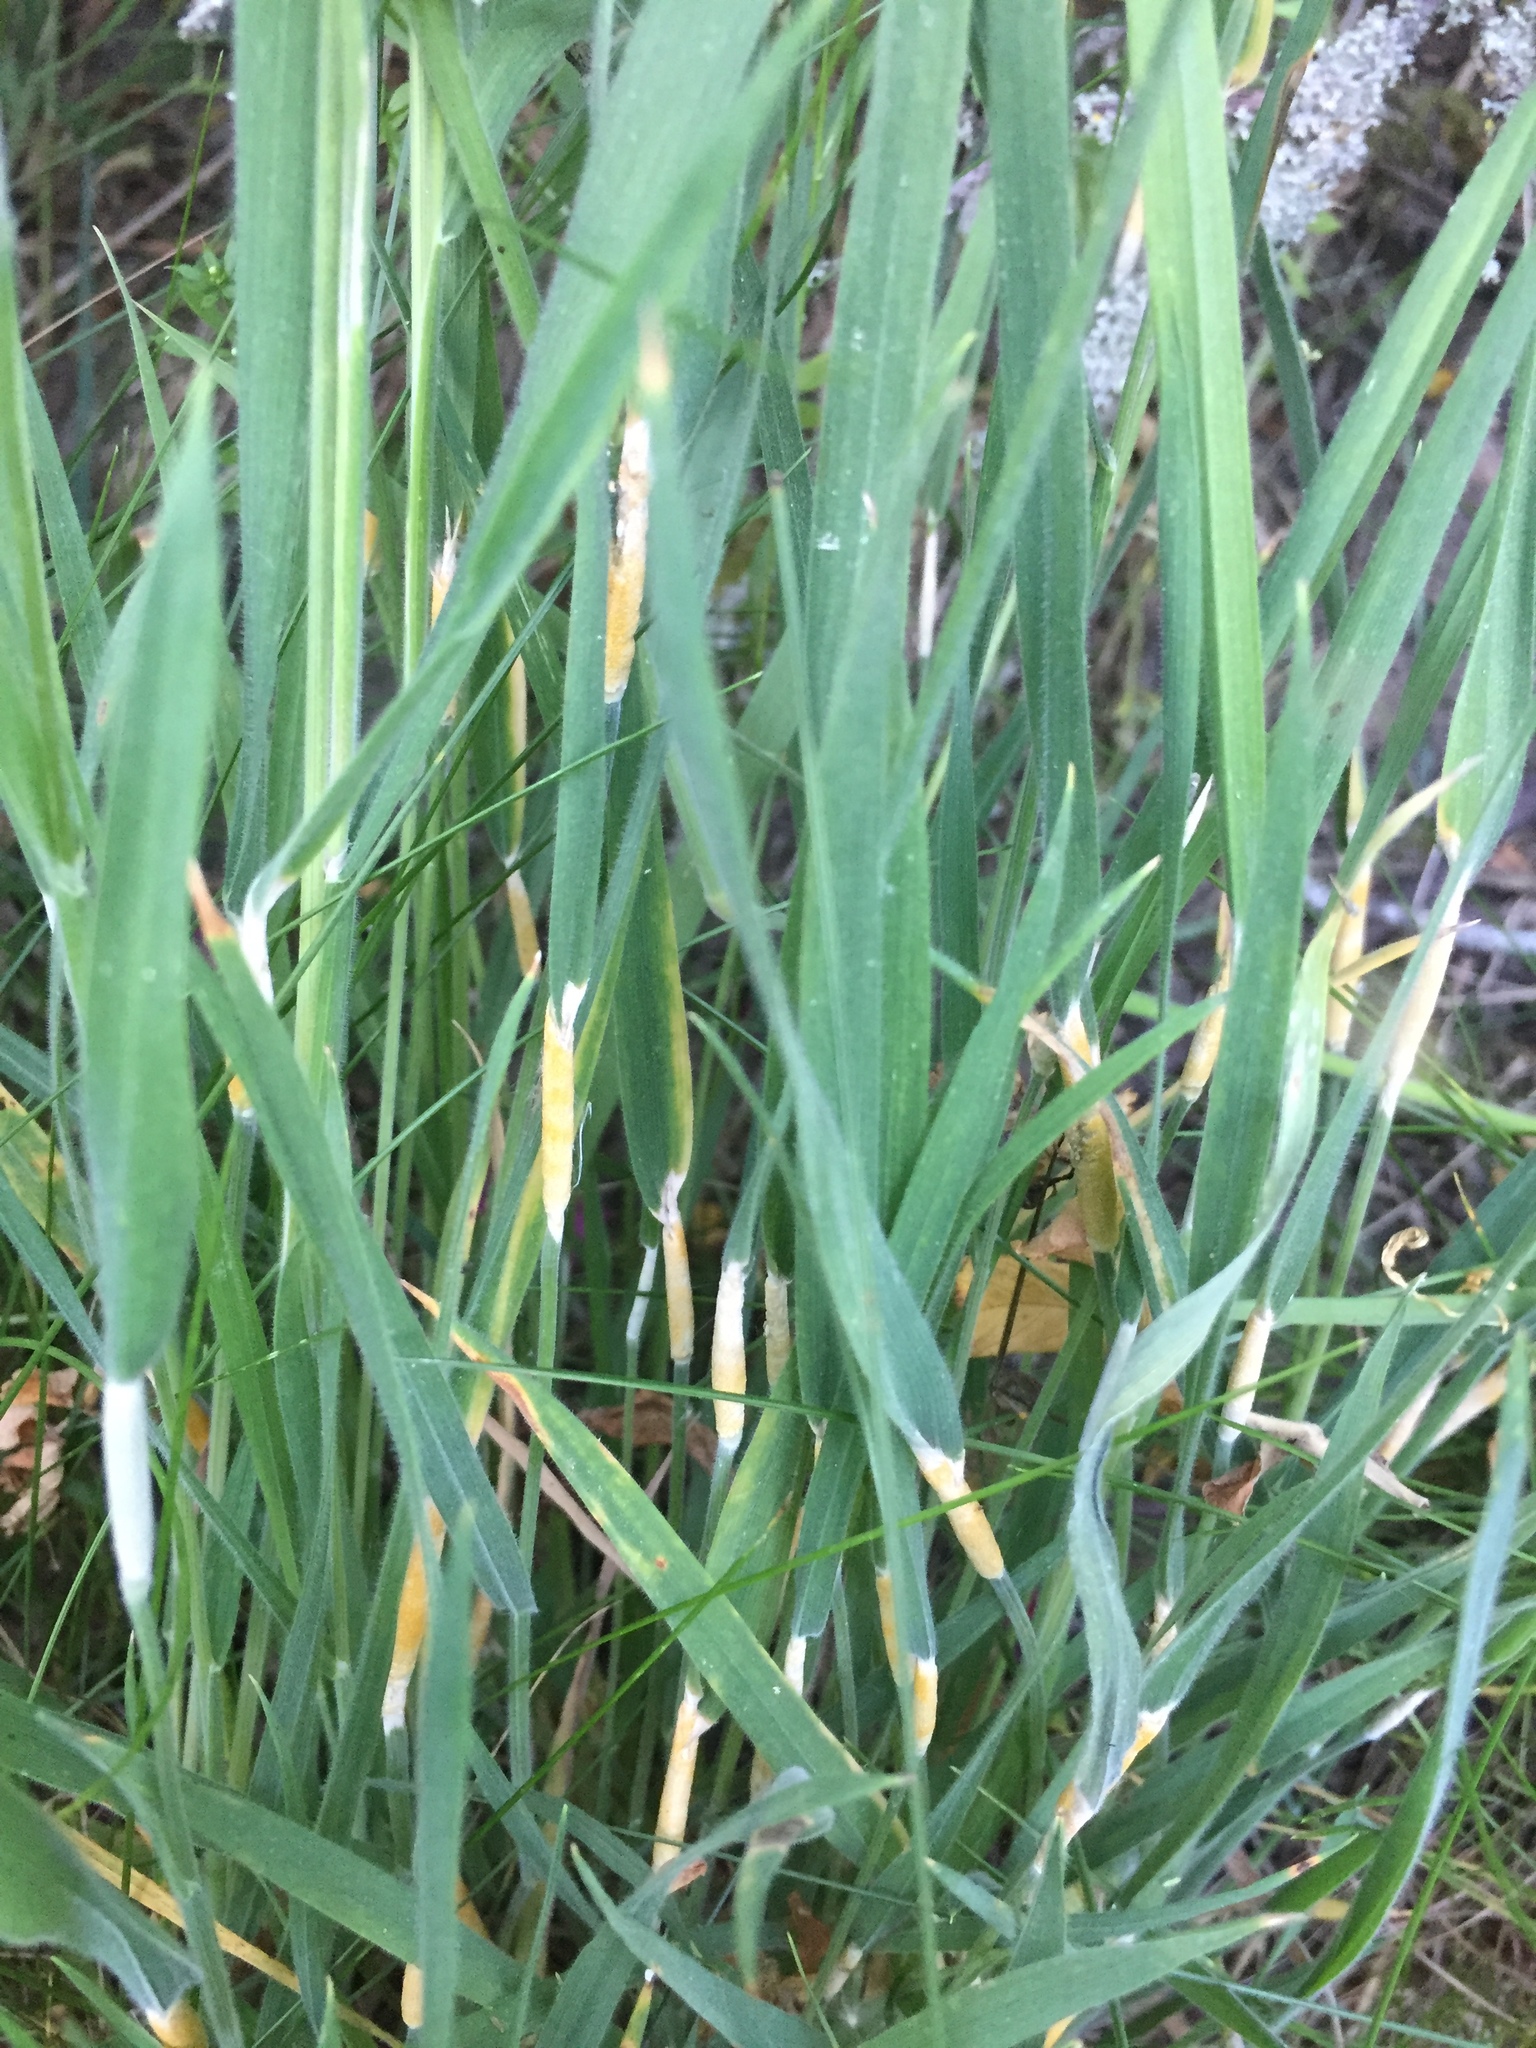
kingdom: Fungi
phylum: Ascomycota
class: Sordariomycetes
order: Hypocreales
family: Clavicipitaceae
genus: Epichloe
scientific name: Epichloe clarkii
